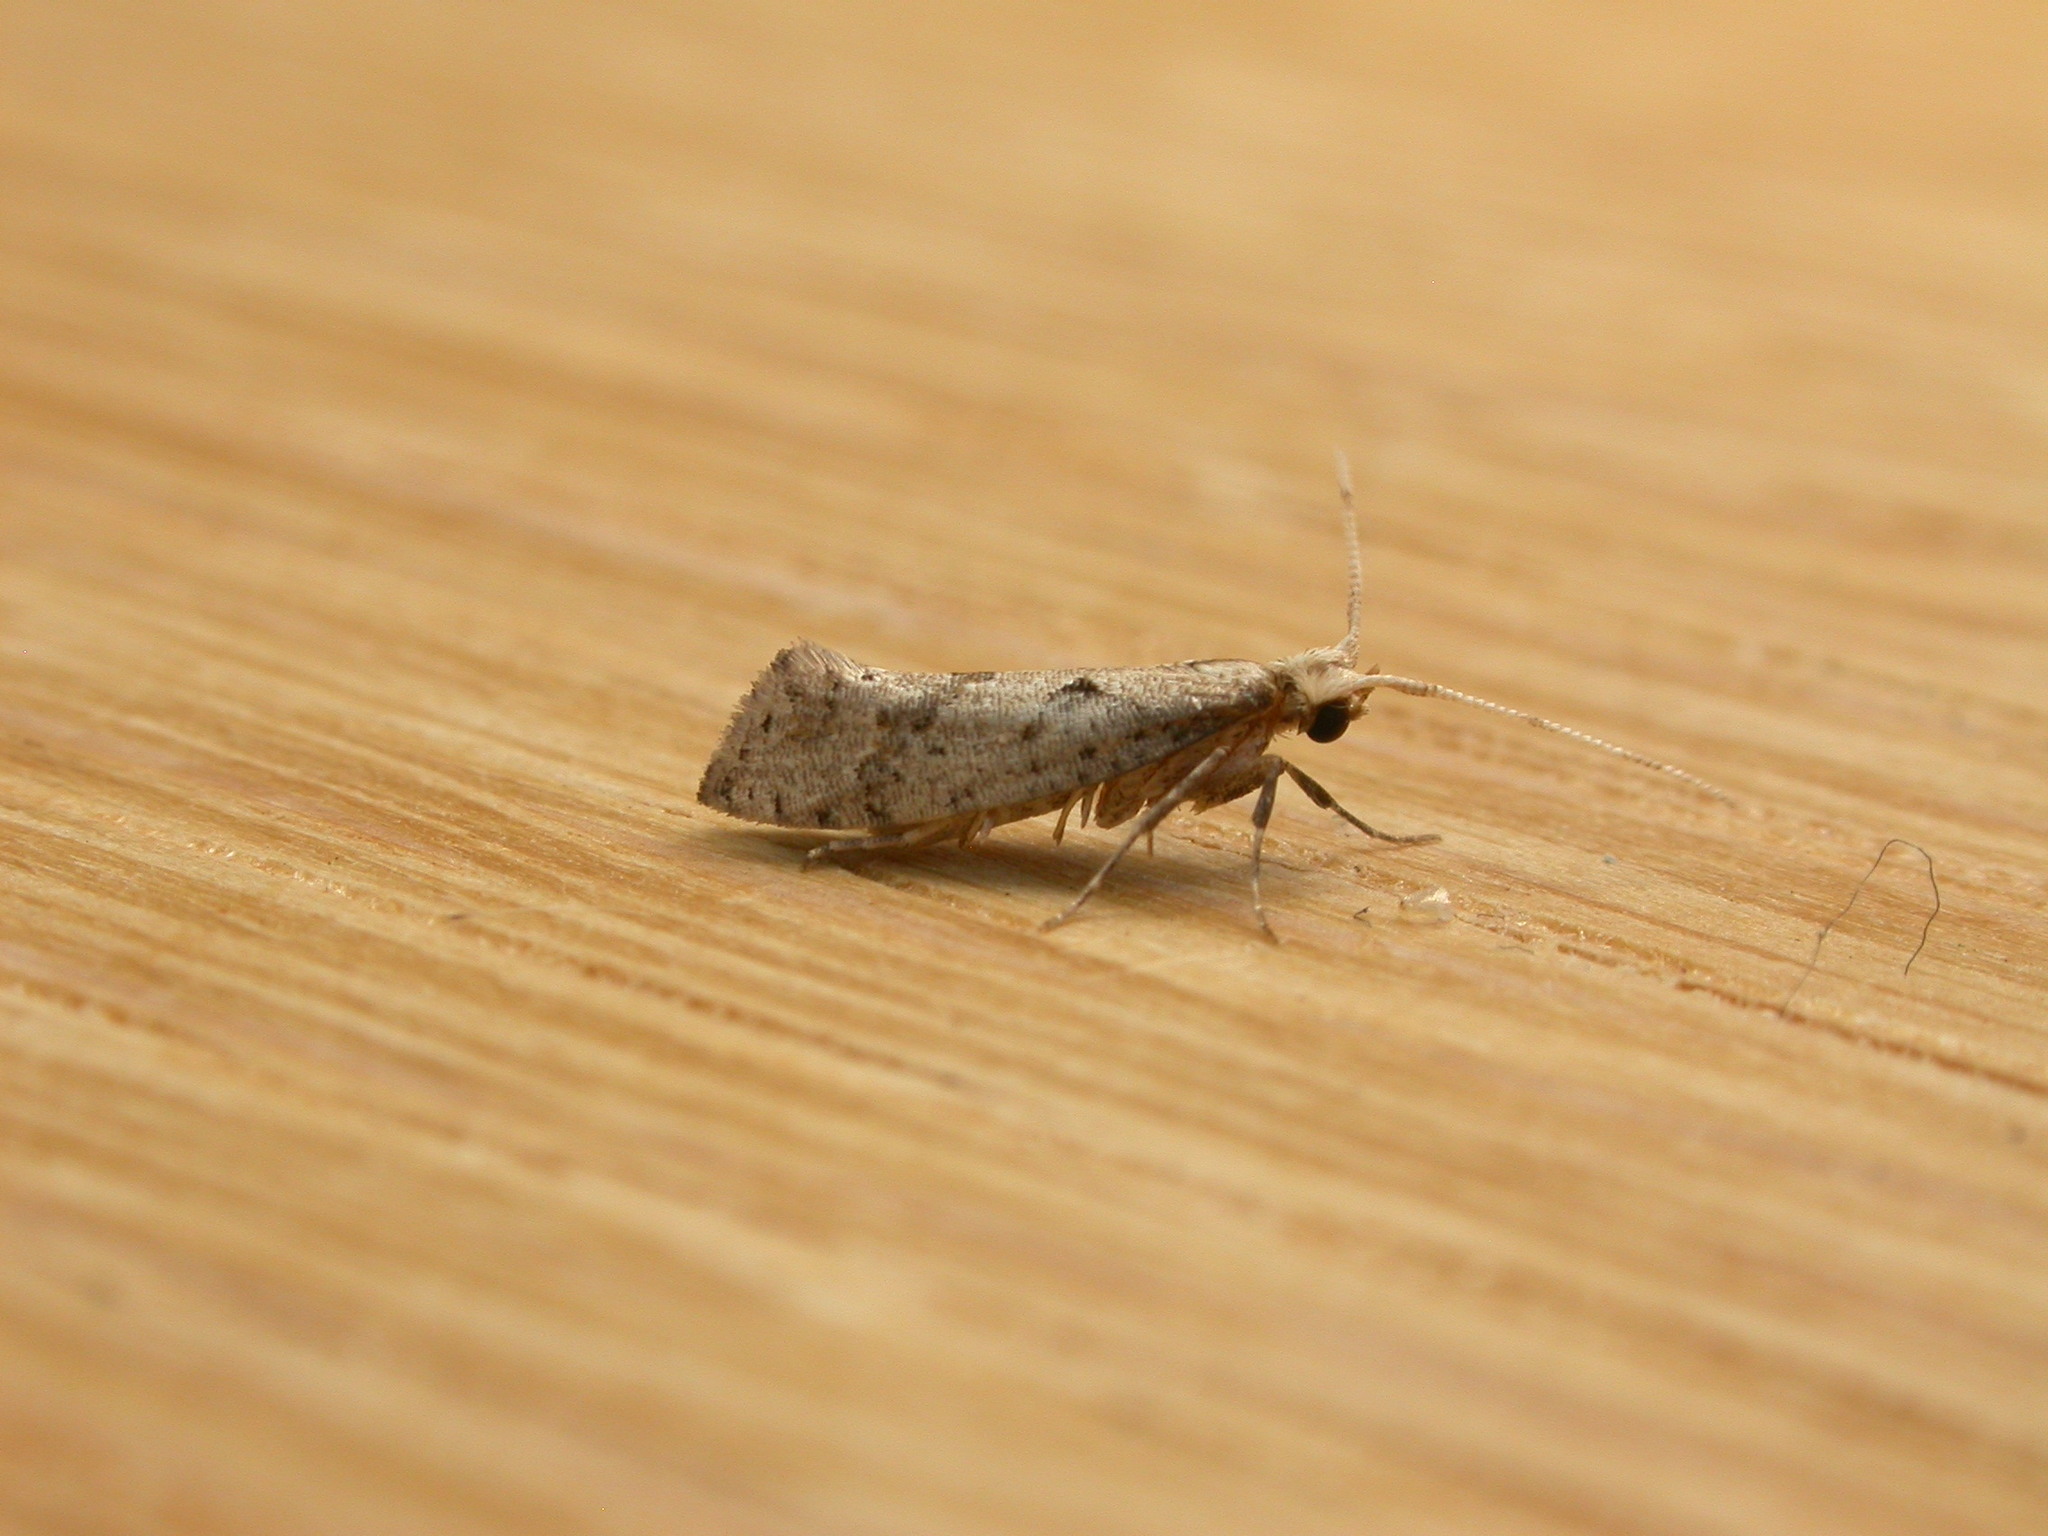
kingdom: Animalia
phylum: Arthropoda
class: Insecta
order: Lepidoptera
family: Plutellidae
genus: Leuroperna
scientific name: Leuroperna sera
